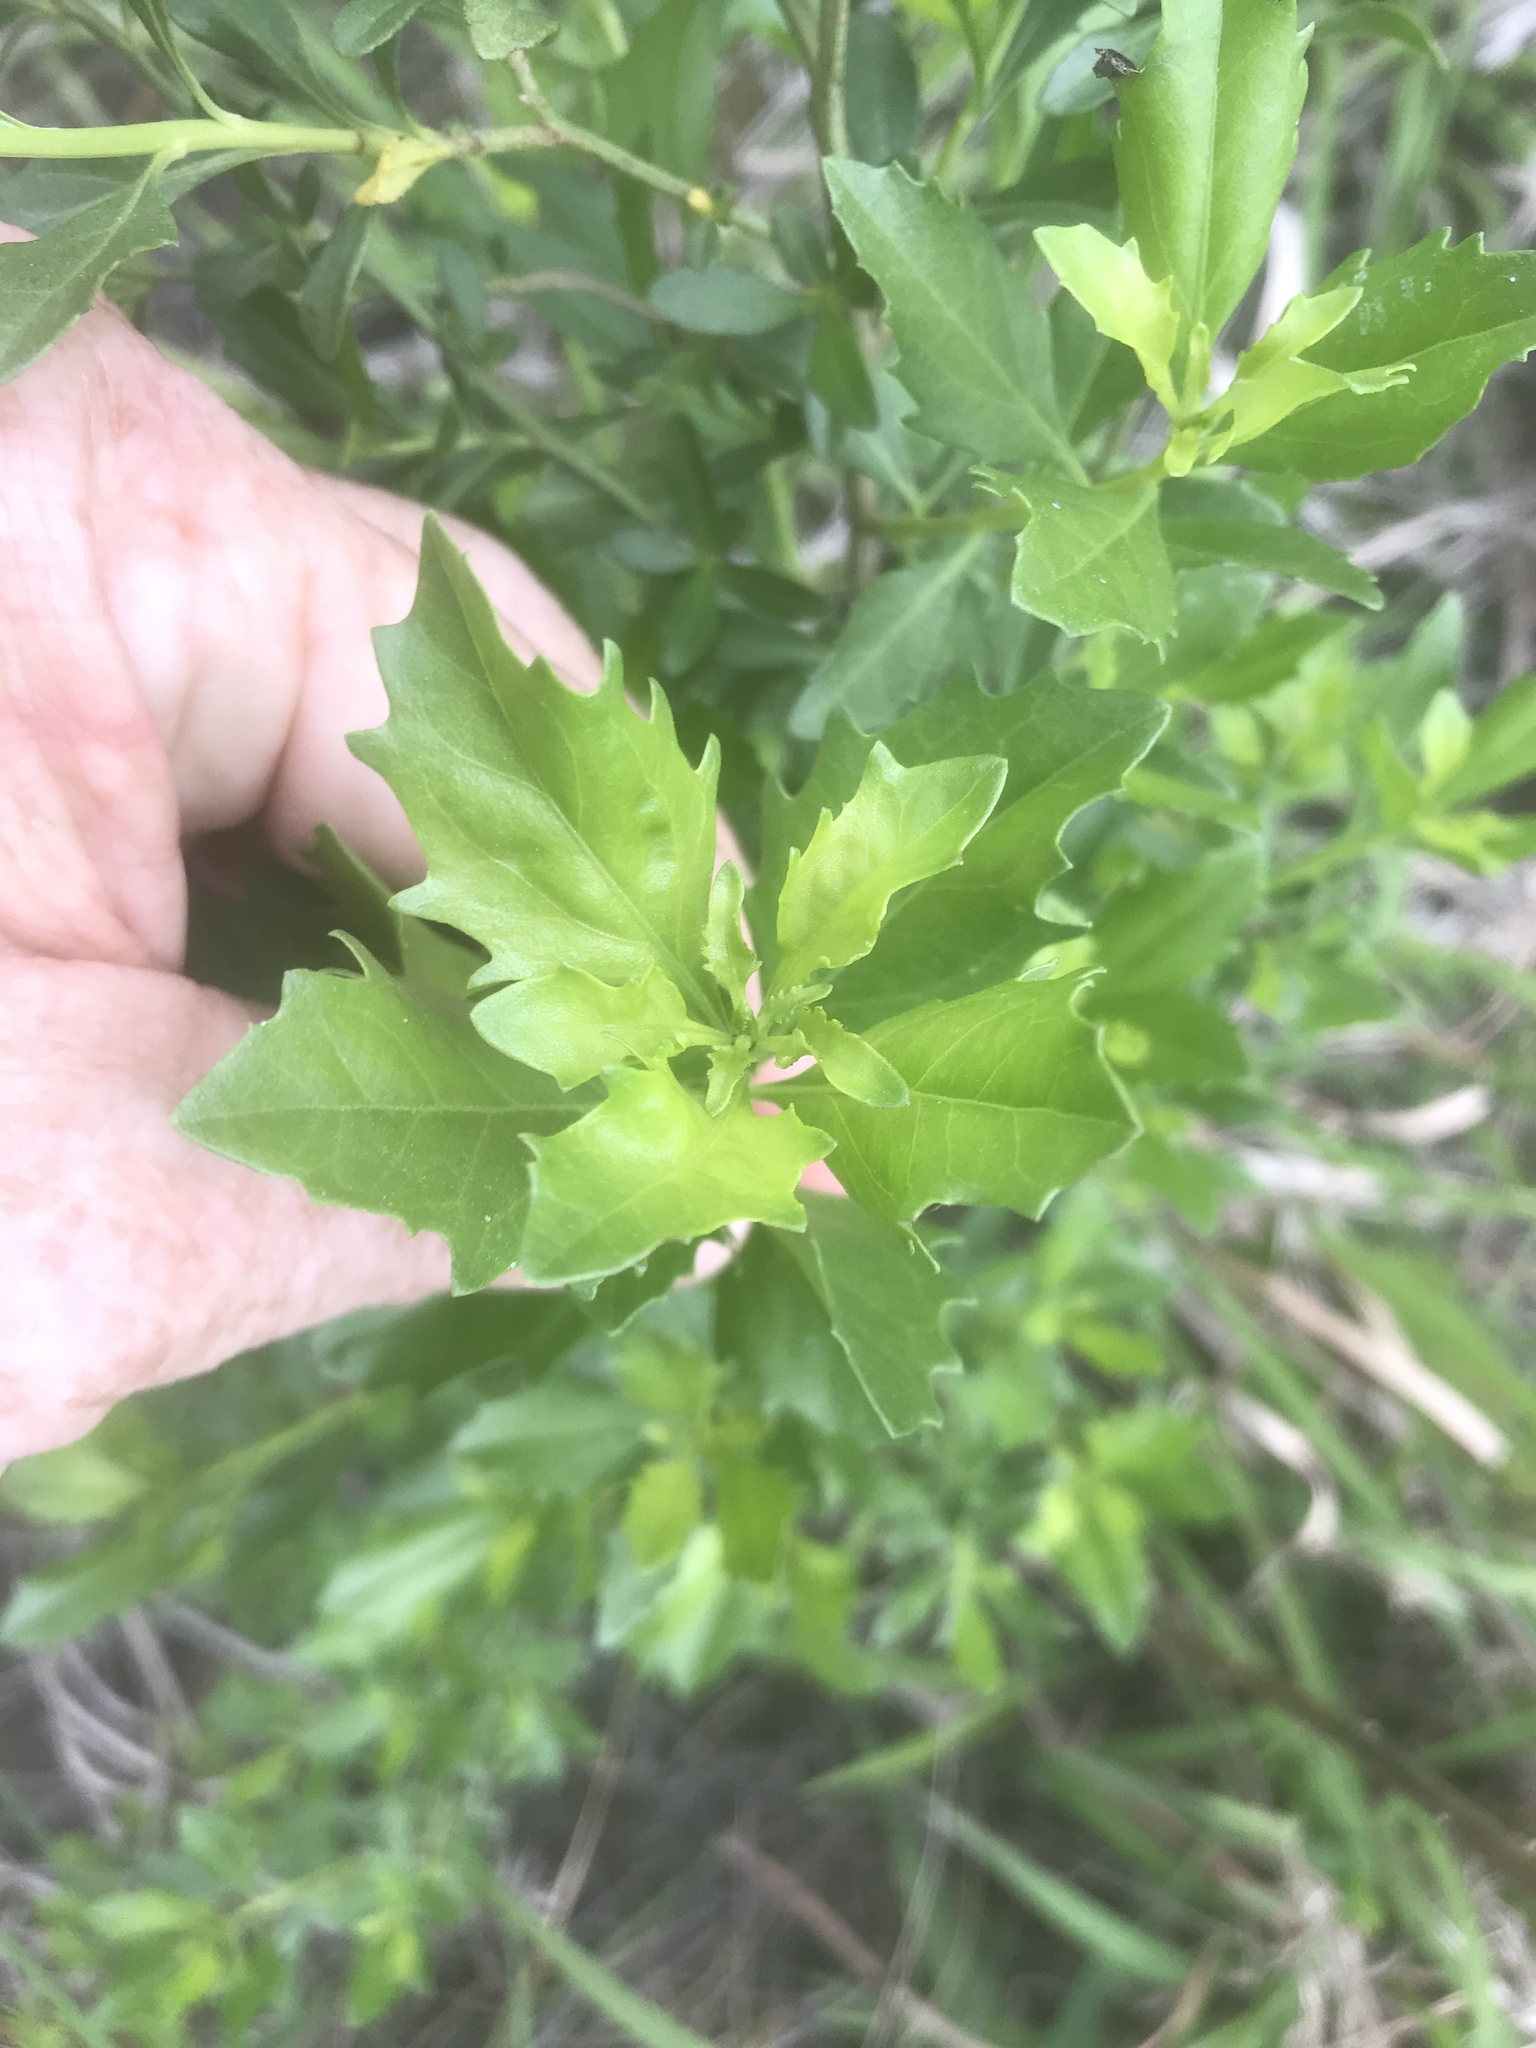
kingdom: Plantae
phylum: Tracheophyta
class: Magnoliopsida
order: Asterales
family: Asteraceae
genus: Baccharis
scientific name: Baccharis halimifolia
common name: Eastern baccharis
